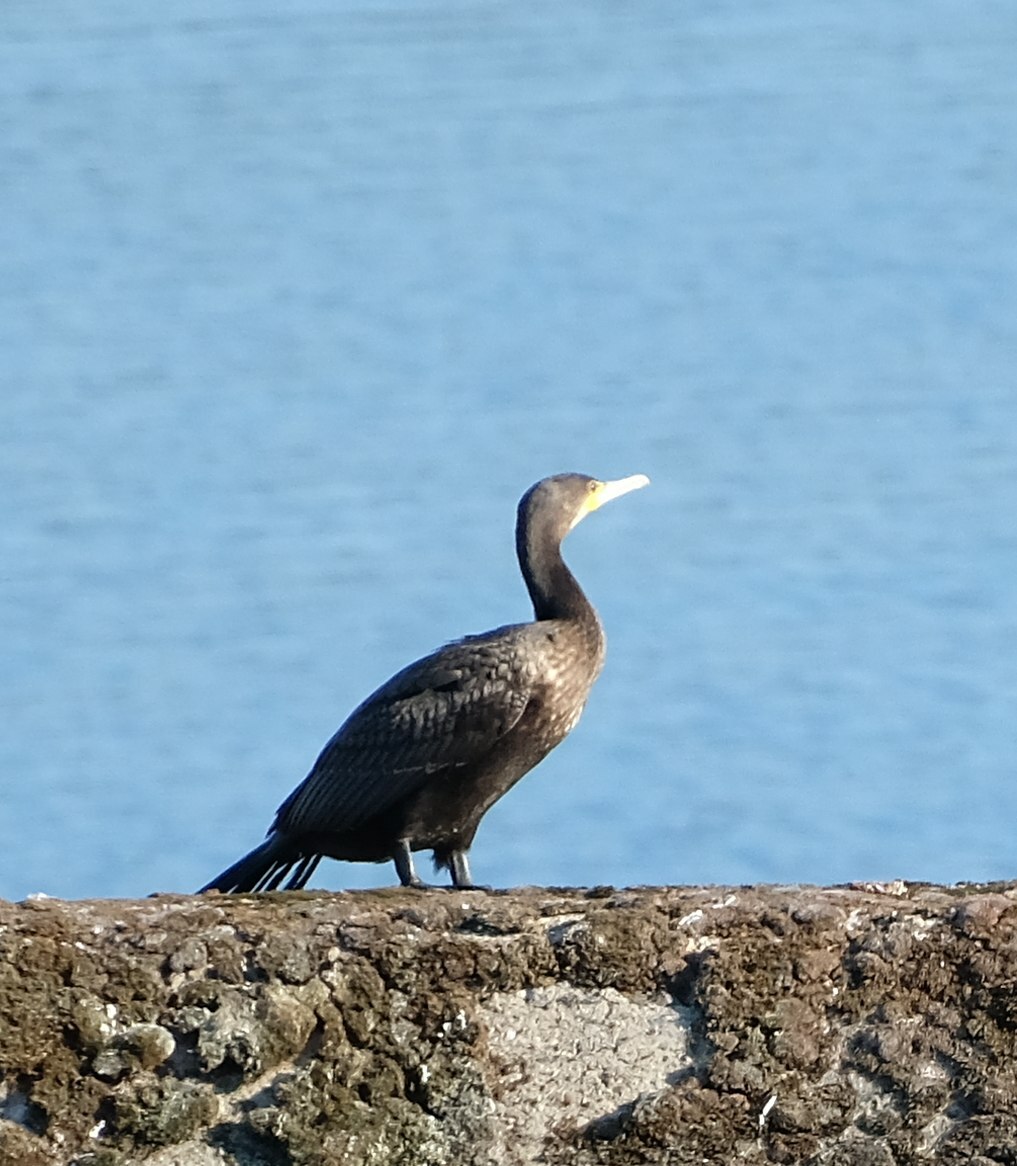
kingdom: Animalia
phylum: Chordata
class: Aves
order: Suliformes
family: Phalacrocoracidae
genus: Phalacrocorax
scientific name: Phalacrocorax carbo
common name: Great cormorant
